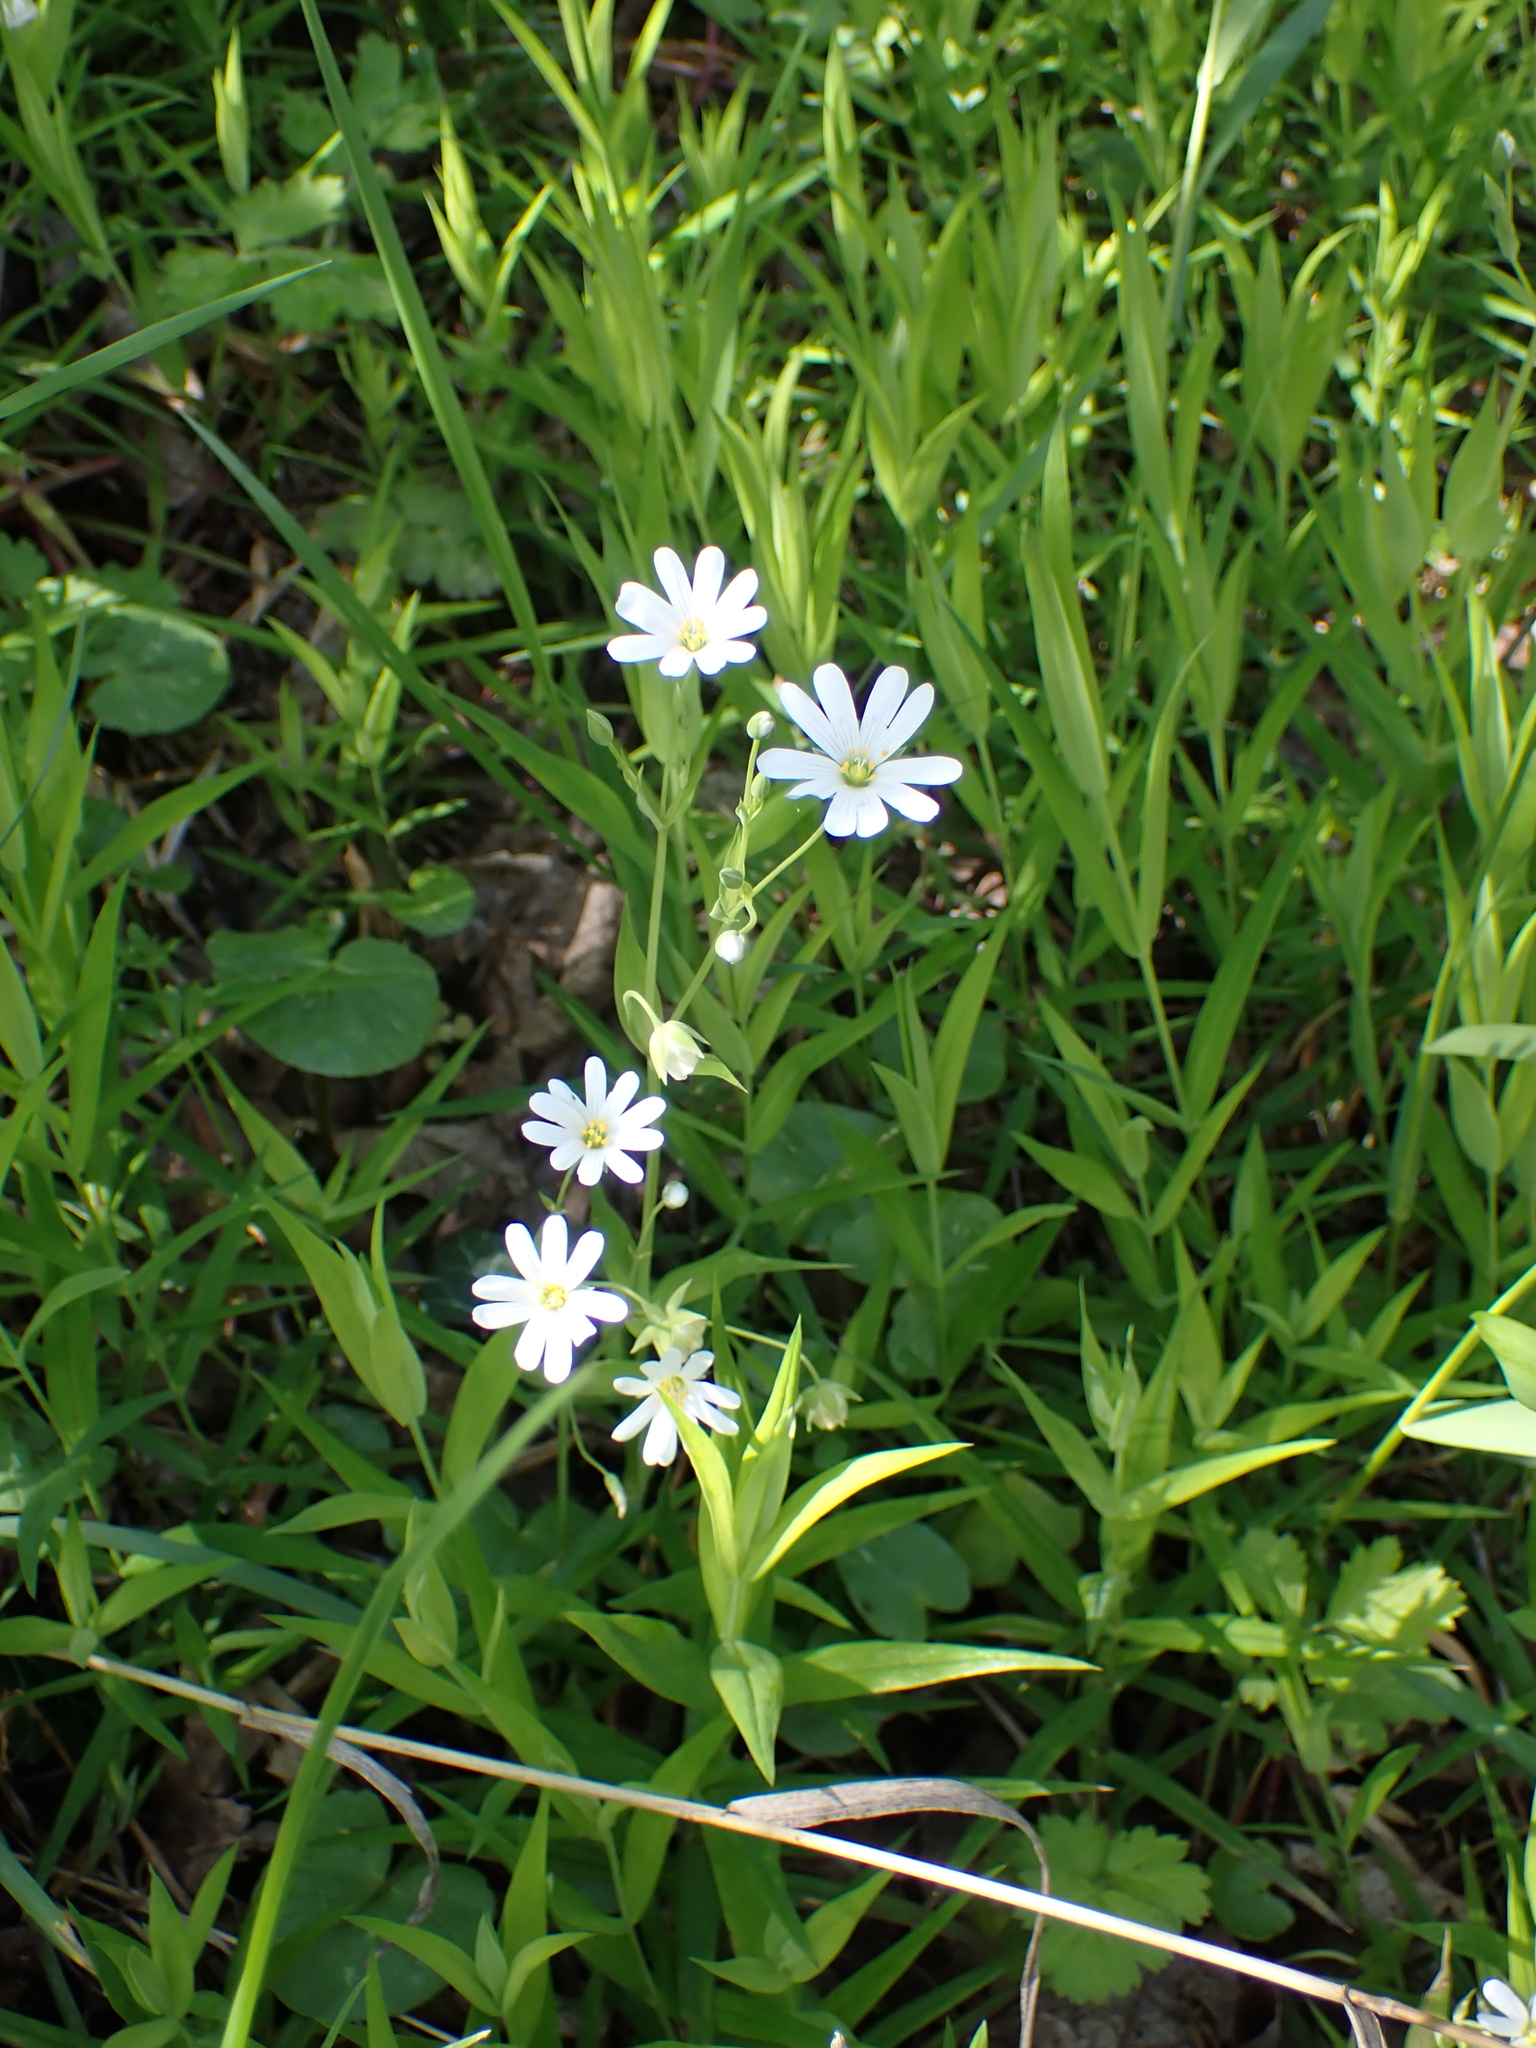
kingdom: Plantae
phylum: Tracheophyta
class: Magnoliopsida
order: Caryophyllales
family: Caryophyllaceae
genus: Rabelera
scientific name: Rabelera holostea
